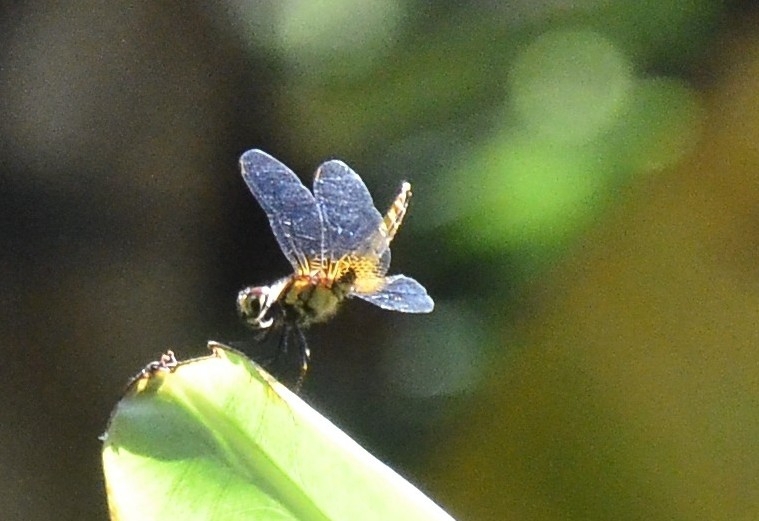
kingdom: Animalia
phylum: Arthropoda
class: Insecta
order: Odonata
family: Libellulidae
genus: Aethriamanta
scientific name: Aethriamanta brevipennis
